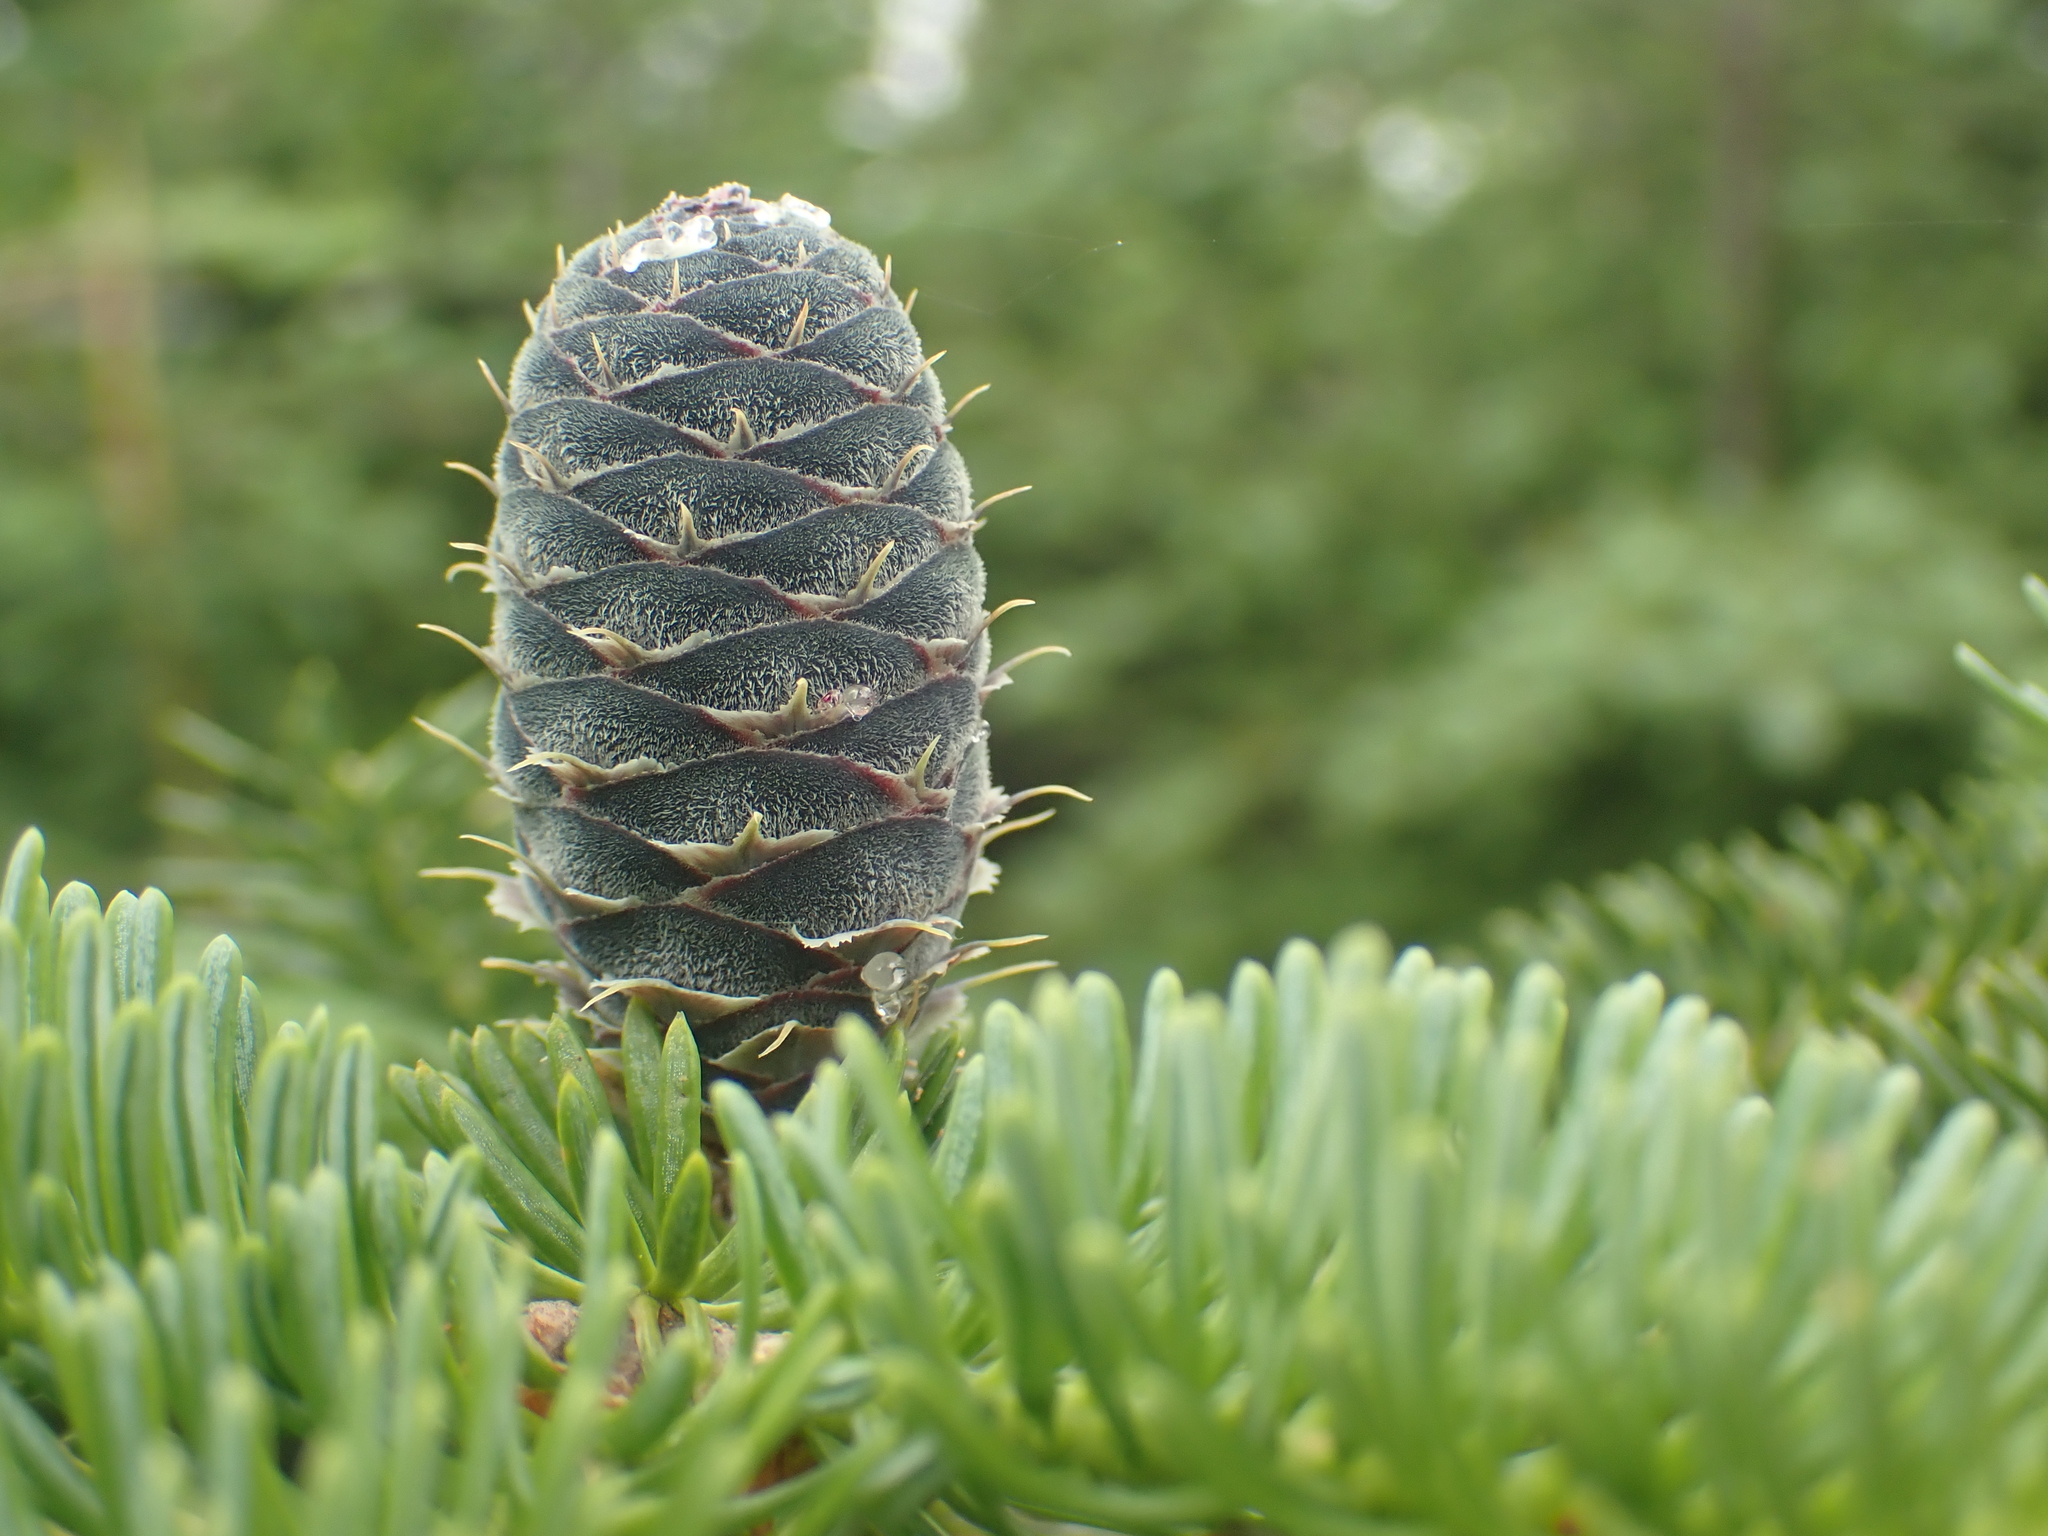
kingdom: Plantae
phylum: Tracheophyta
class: Pinopsida
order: Pinales
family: Pinaceae
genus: Abies
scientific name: Abies balsamea
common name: Balsam fir
